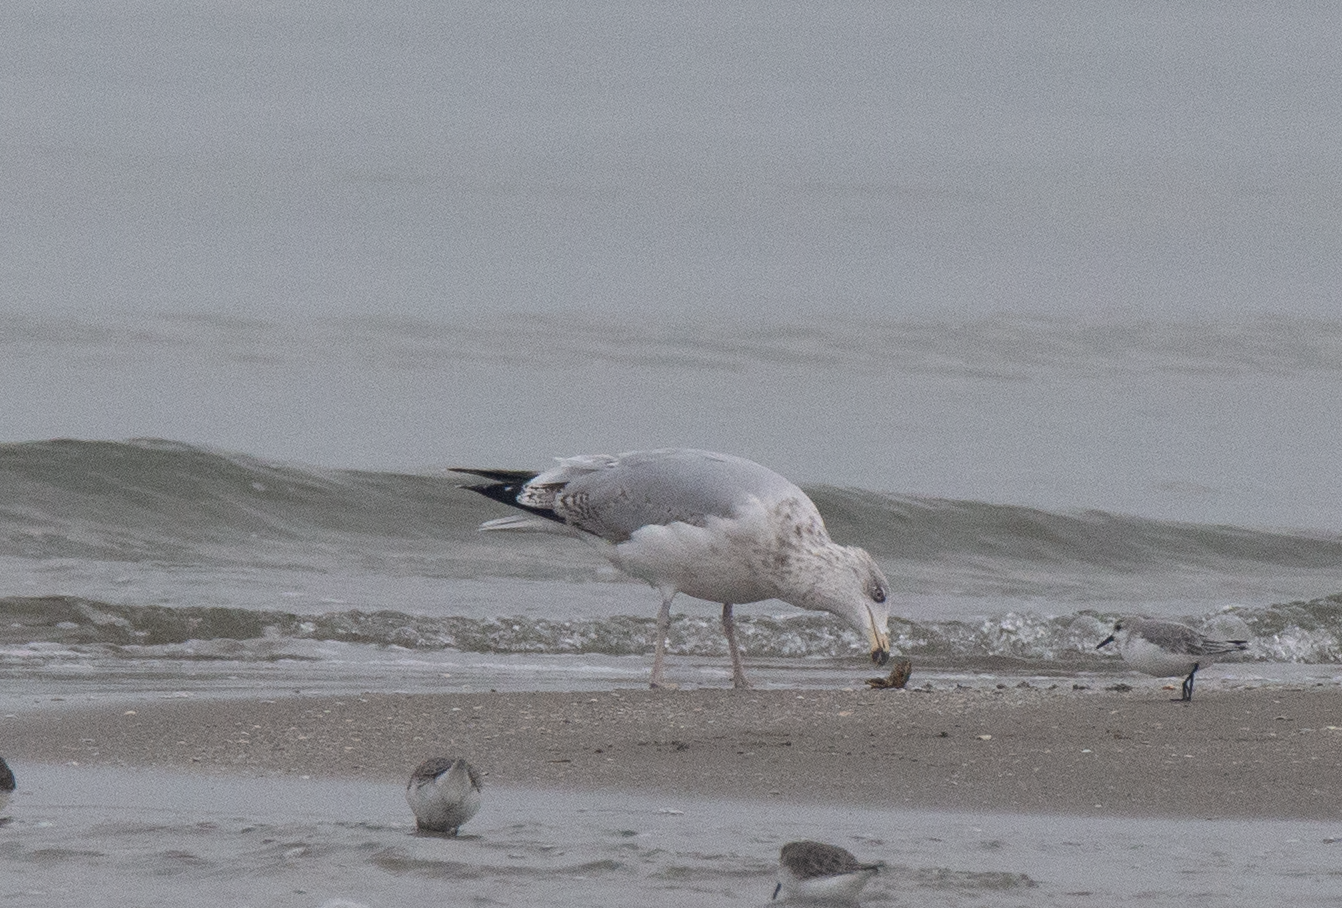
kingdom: Animalia
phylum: Chordata
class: Aves
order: Charadriiformes
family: Laridae
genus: Larus
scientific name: Larus argentatus
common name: Herring gull
